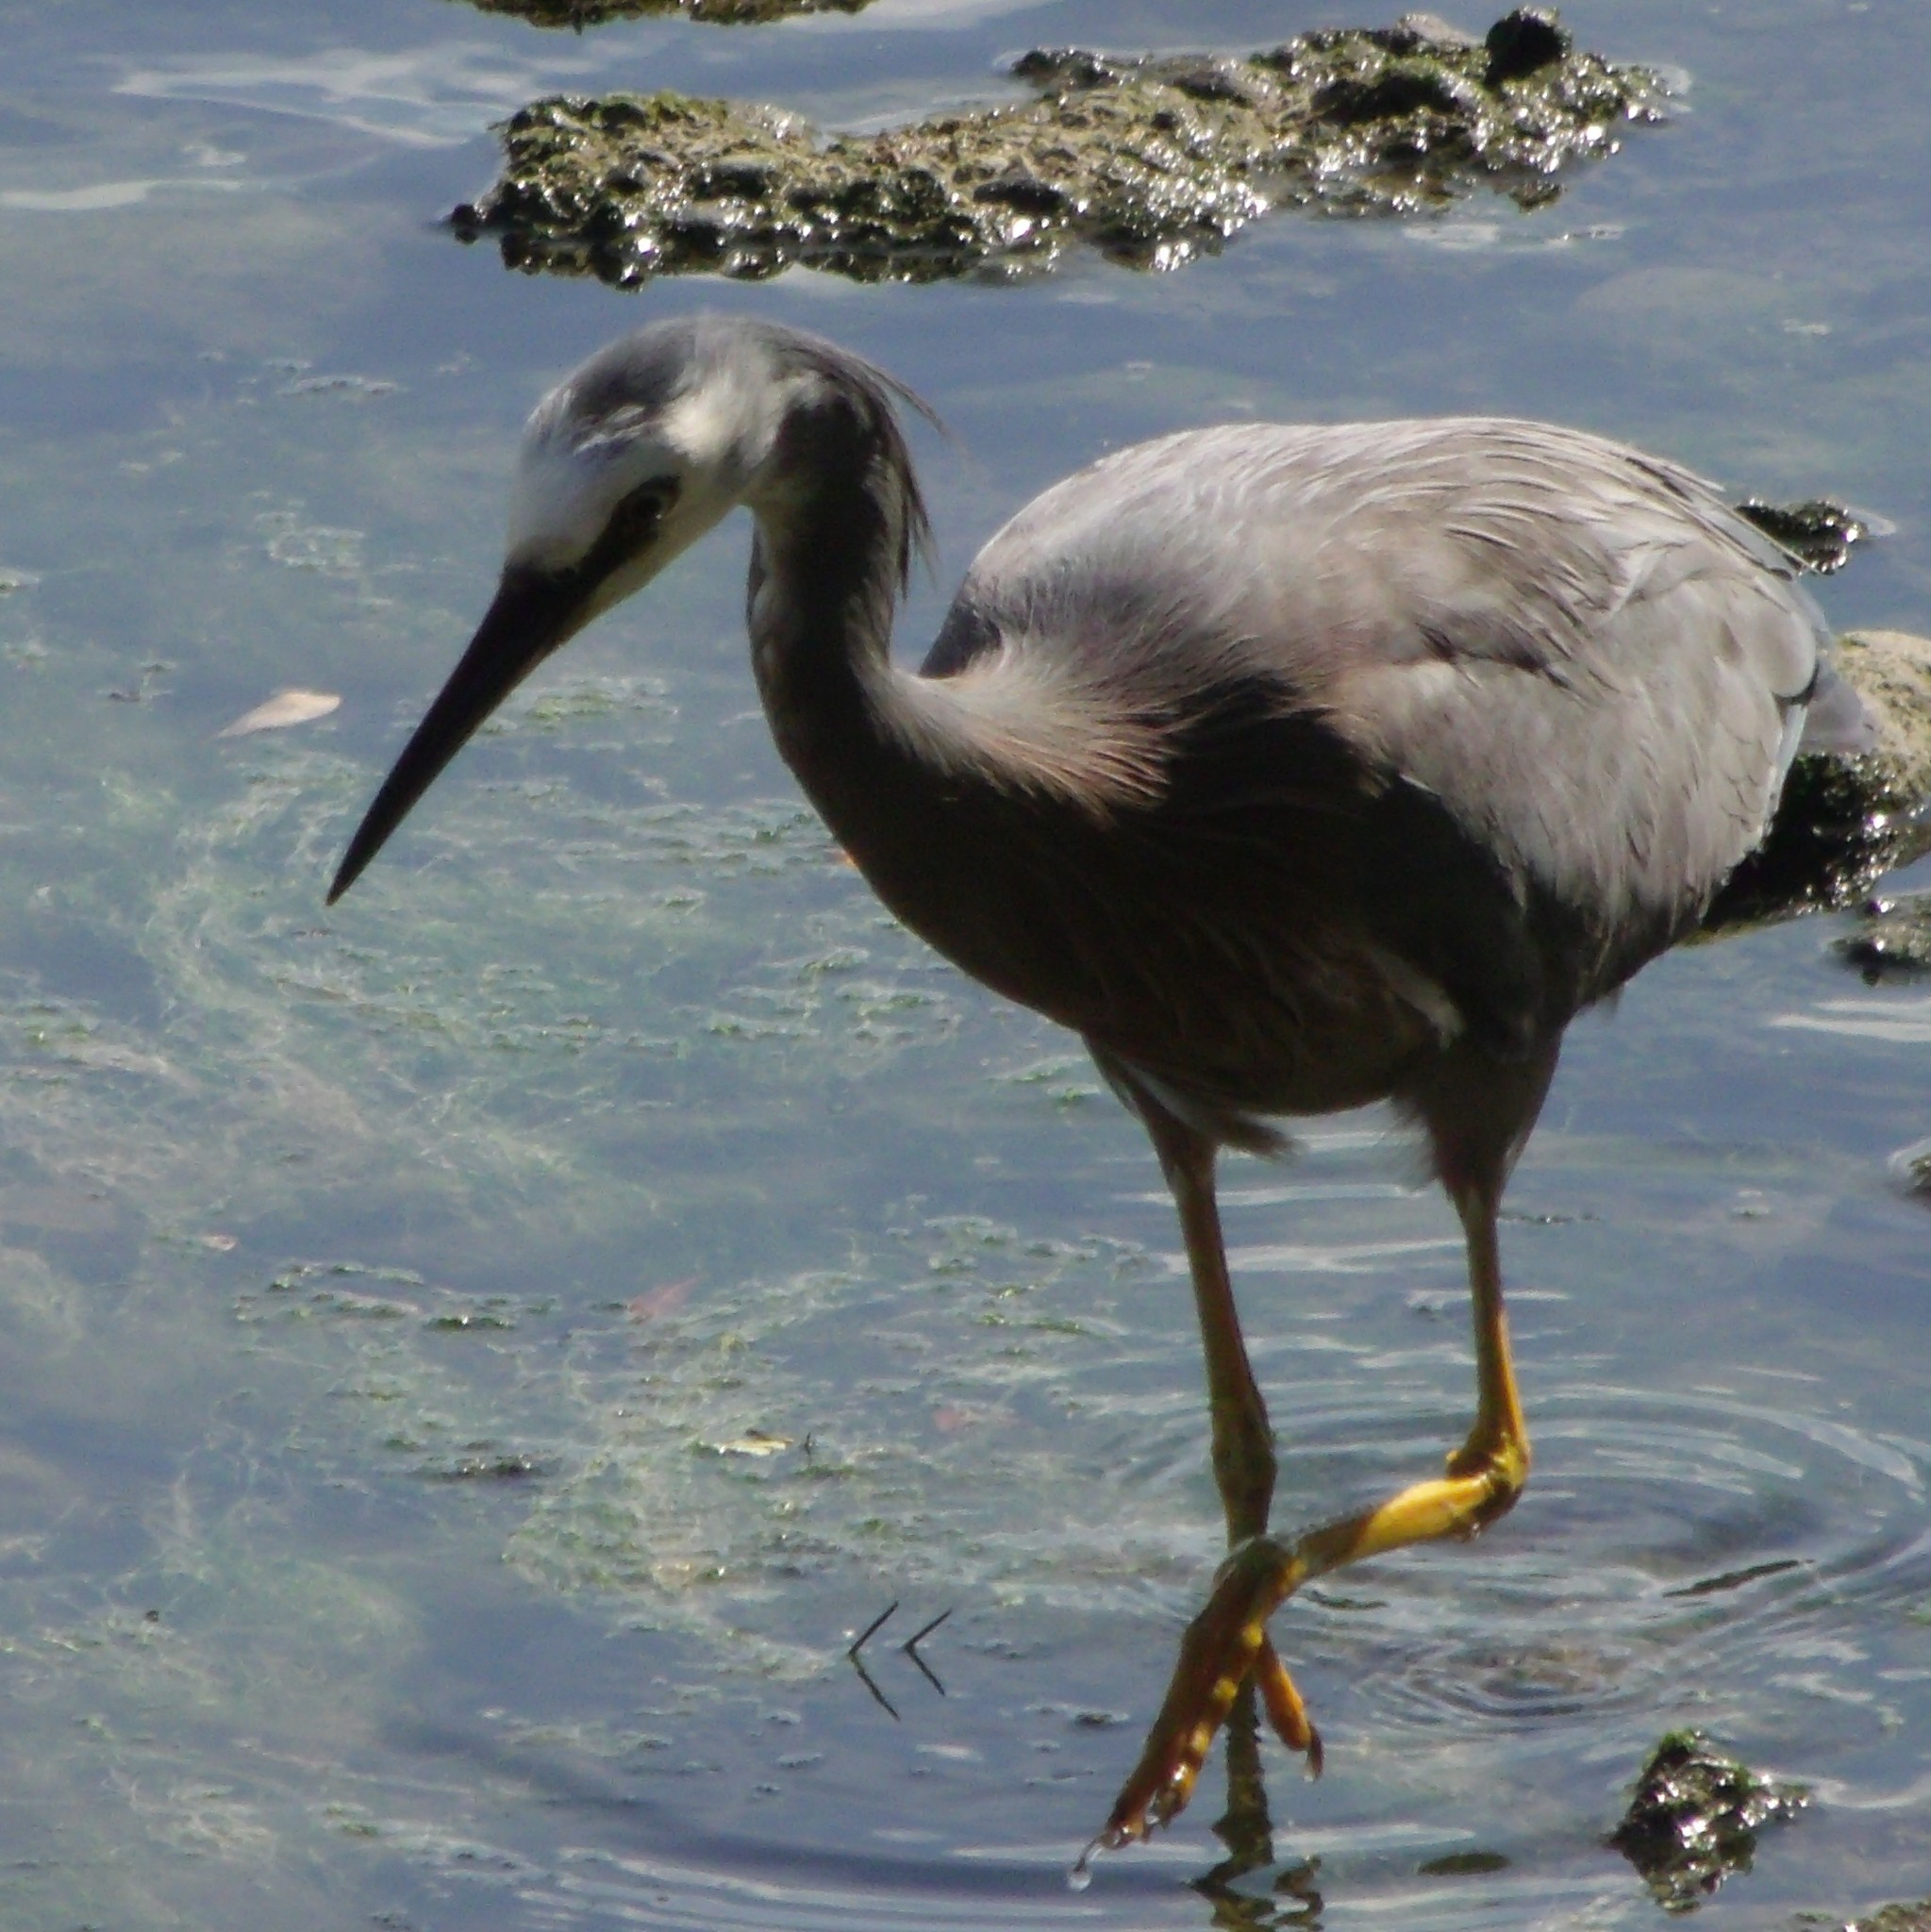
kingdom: Animalia
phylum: Chordata
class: Aves
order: Pelecaniformes
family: Ardeidae
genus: Egretta
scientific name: Egretta novaehollandiae
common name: White-faced heron
